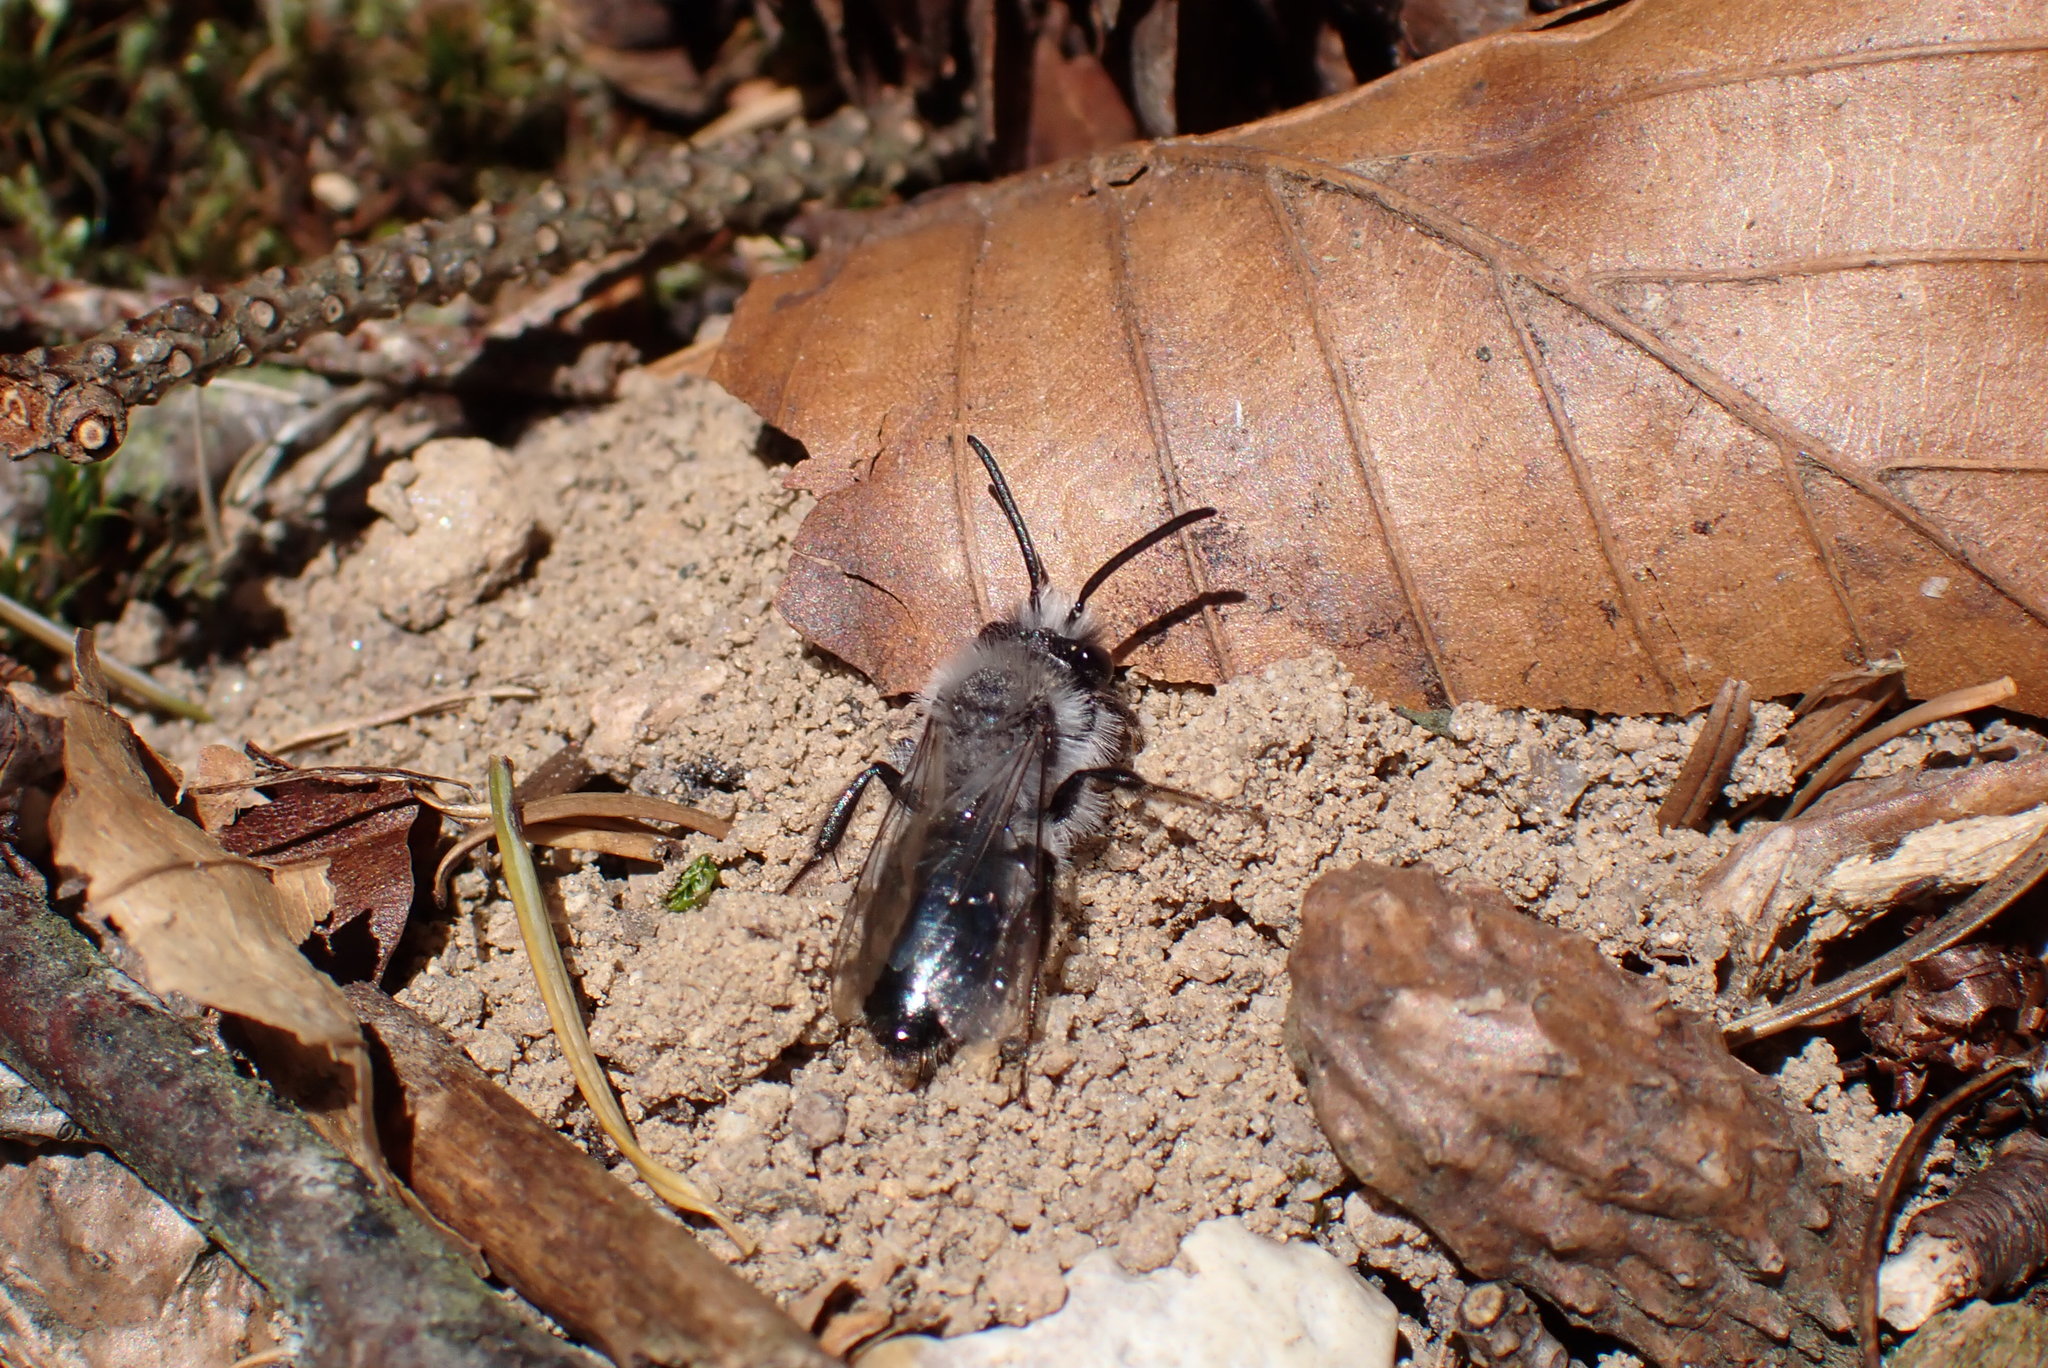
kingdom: Animalia
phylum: Arthropoda
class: Insecta
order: Hymenoptera
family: Andrenidae
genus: Andrena
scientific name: Andrena cineraria
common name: Ashy mining bee
